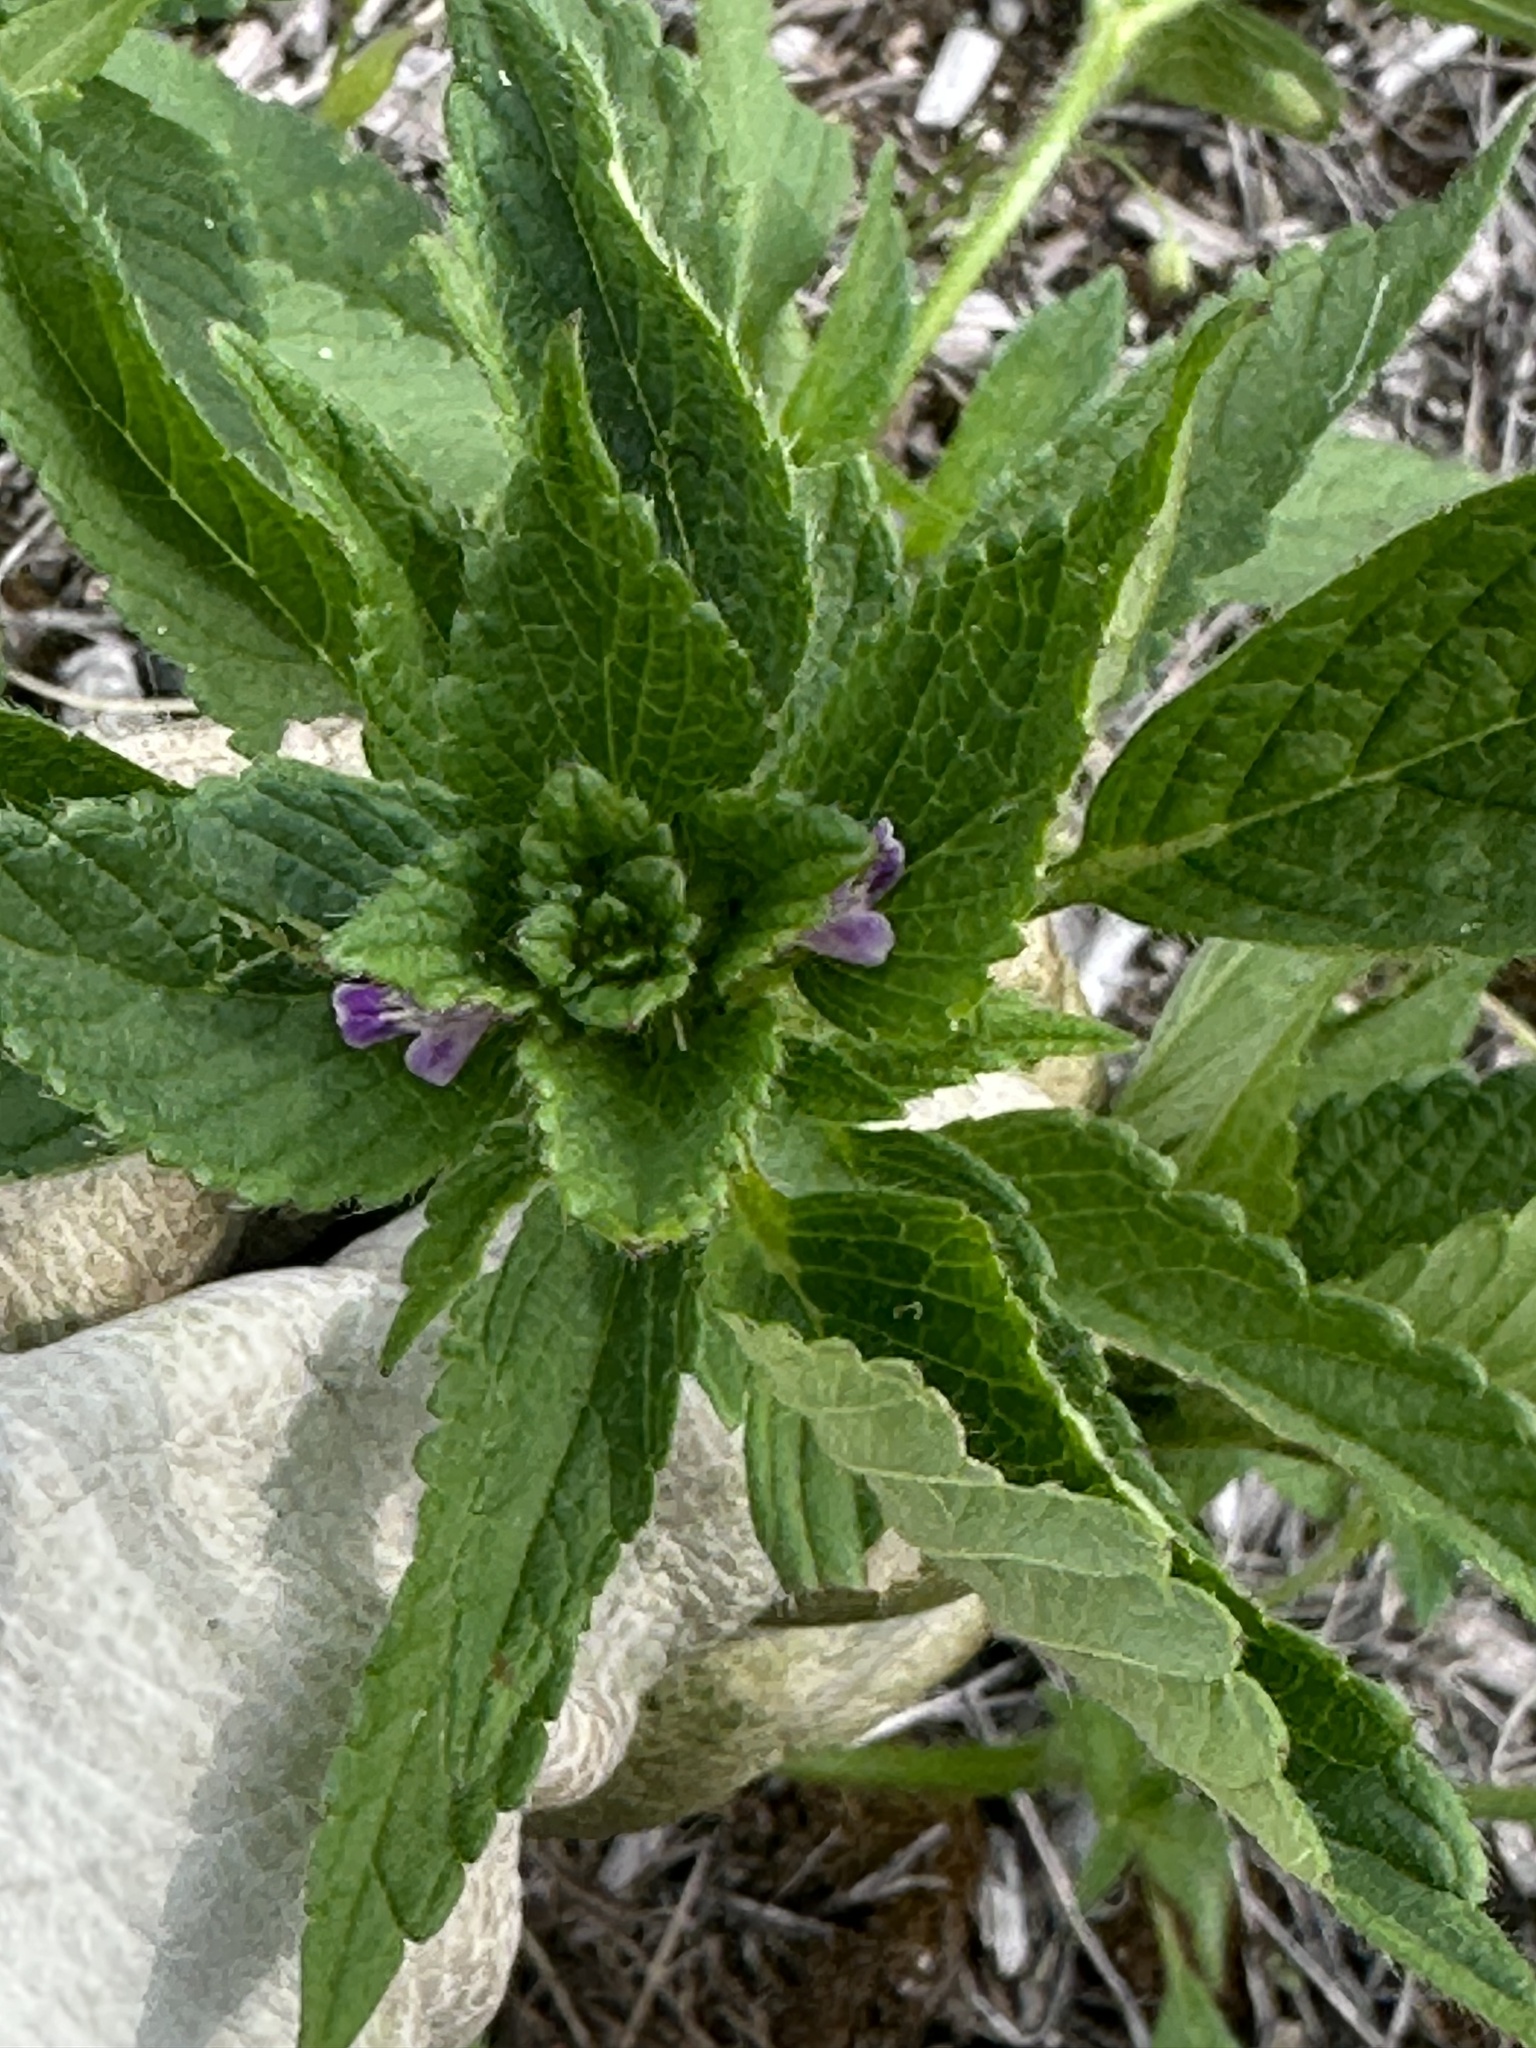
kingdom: Plantae
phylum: Tracheophyta
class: Magnoliopsida
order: Lamiales
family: Lamiaceae
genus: Galeopsis
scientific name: Galeopsis bifida
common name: Bifid hemp-nettle
